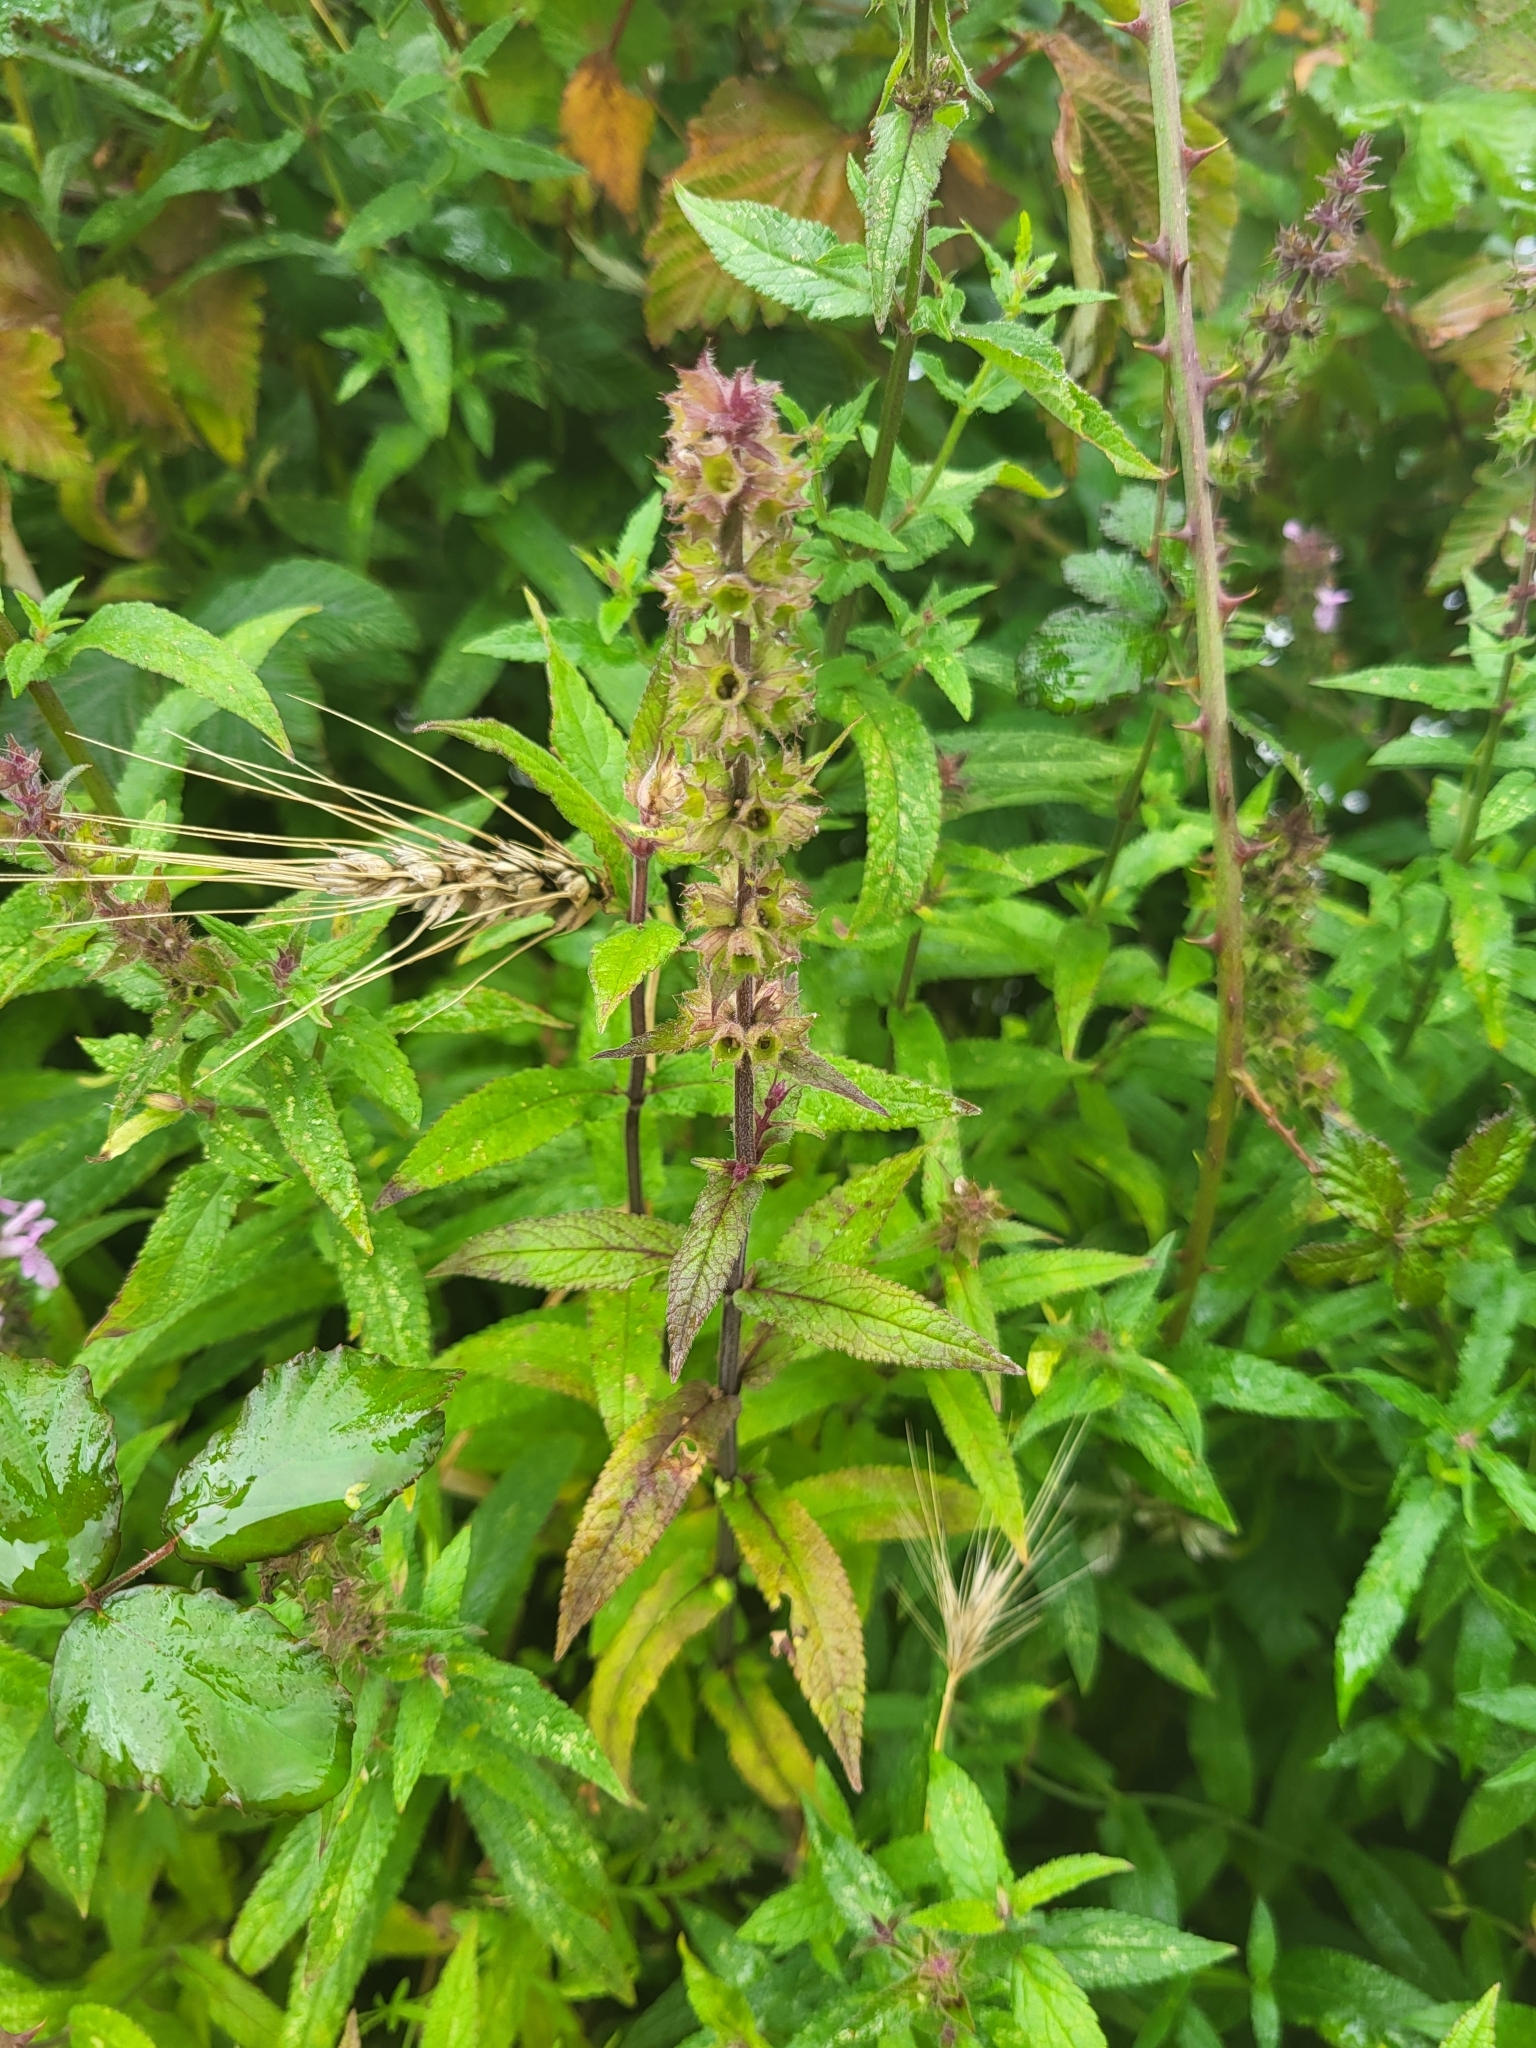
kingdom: Plantae
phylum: Tracheophyta
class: Magnoliopsida
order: Lamiales
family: Lamiaceae
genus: Stachys
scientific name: Stachys palustris
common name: Marsh woundwort
